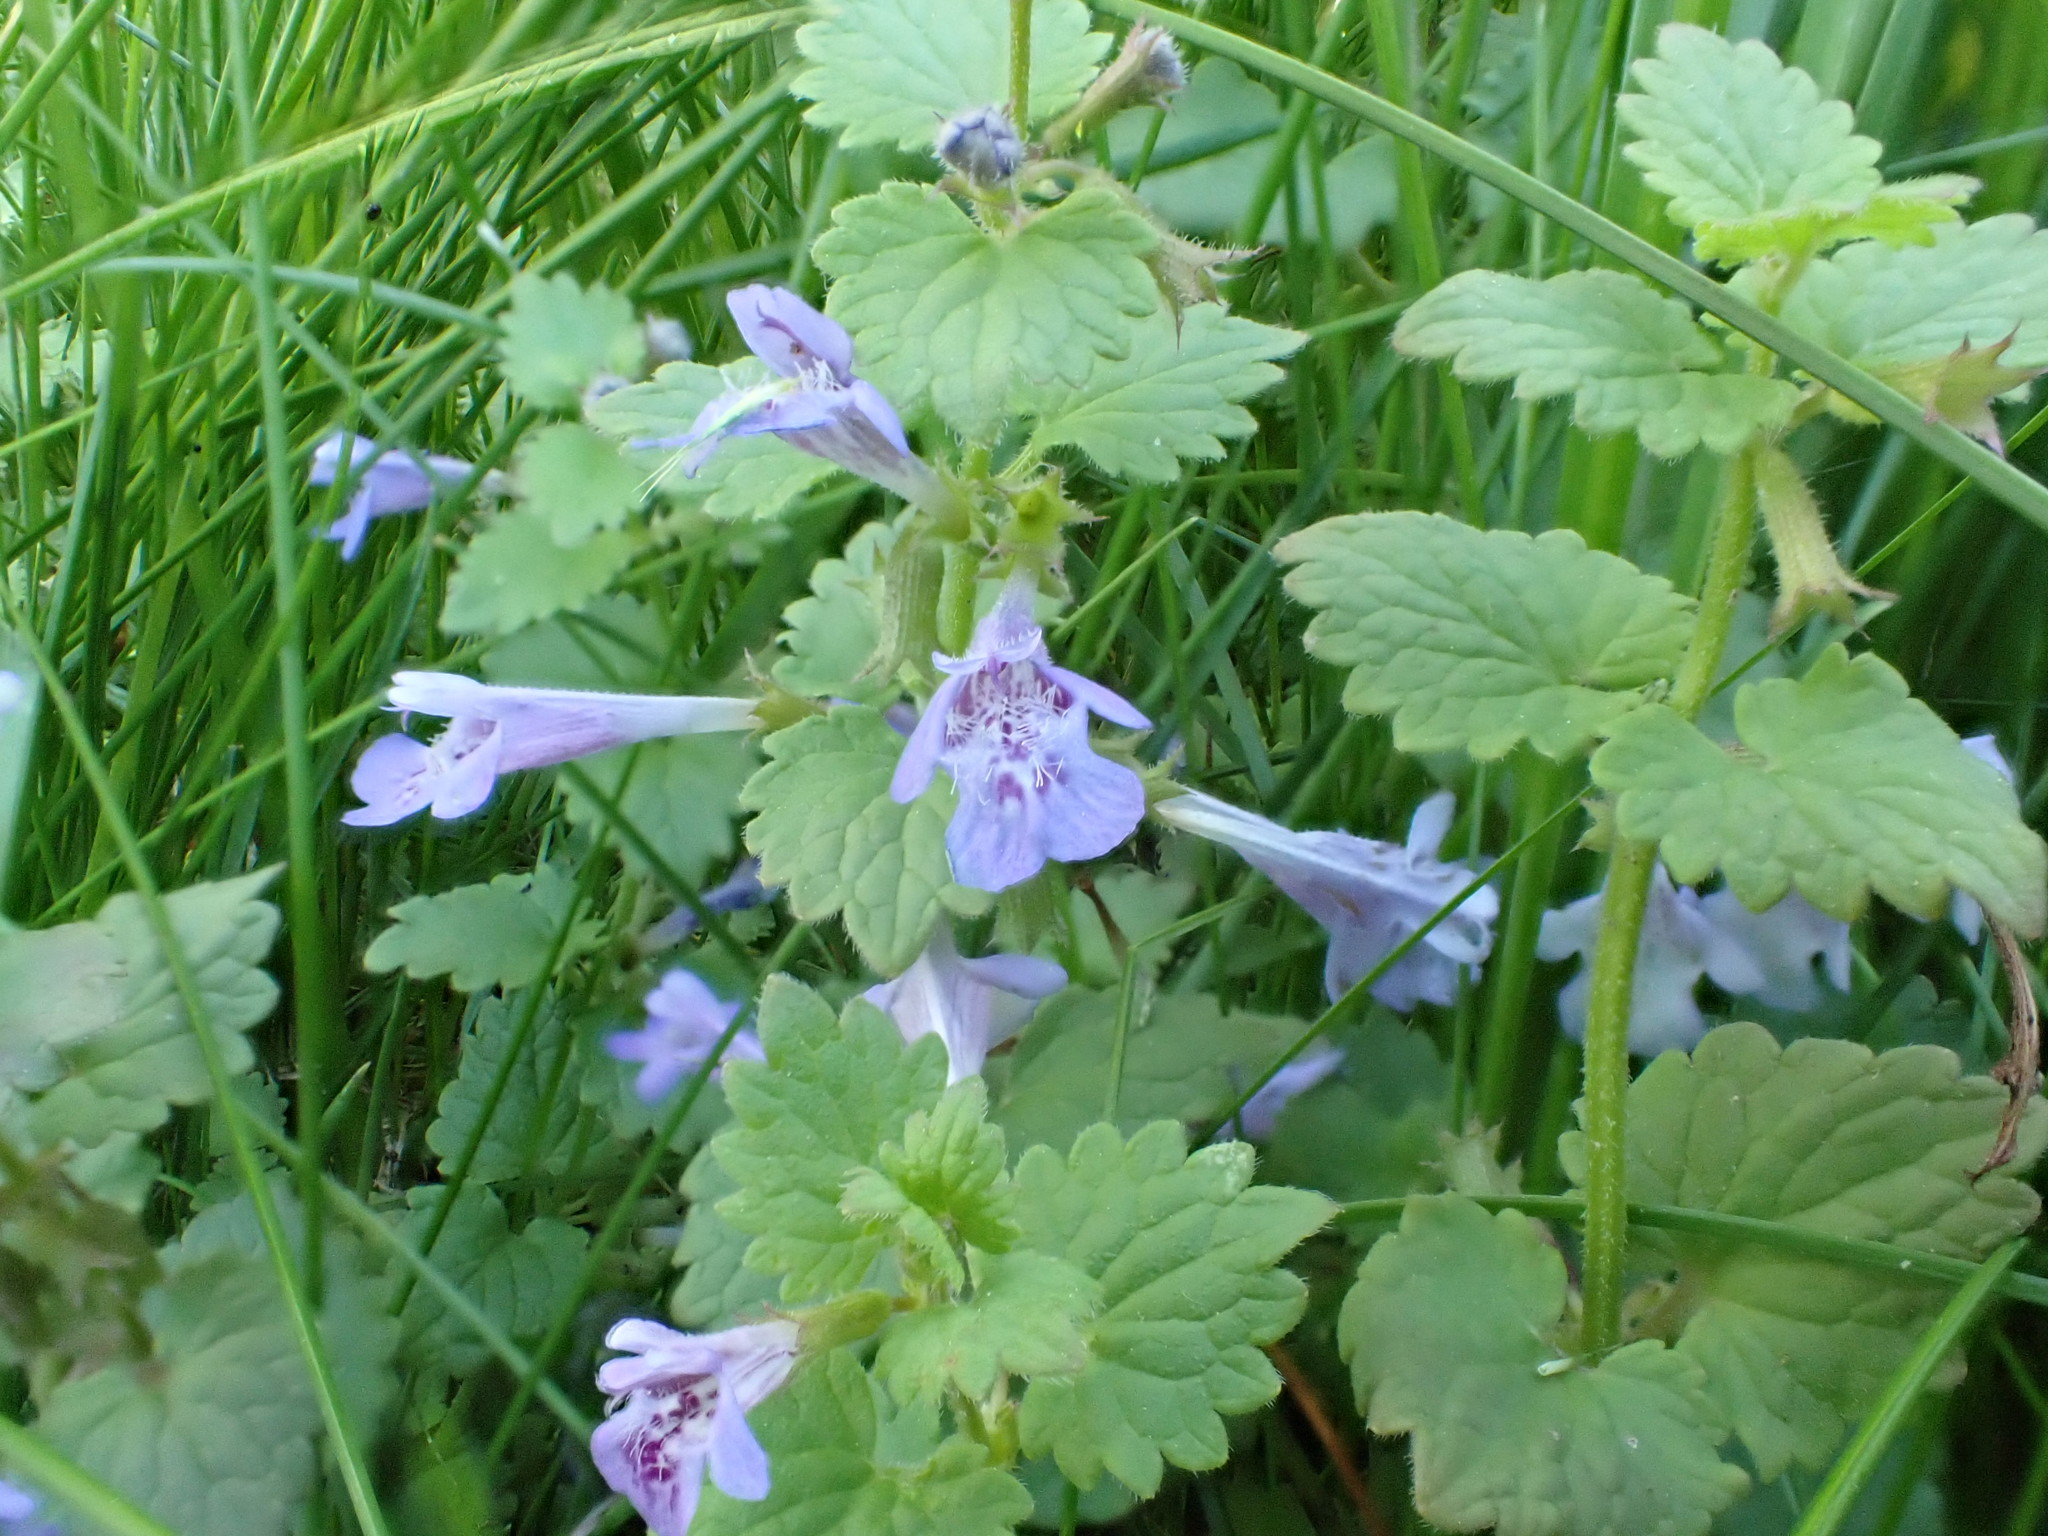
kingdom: Plantae
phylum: Tracheophyta
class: Magnoliopsida
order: Lamiales
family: Lamiaceae
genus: Glechoma
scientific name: Glechoma hederacea
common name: Ground ivy
